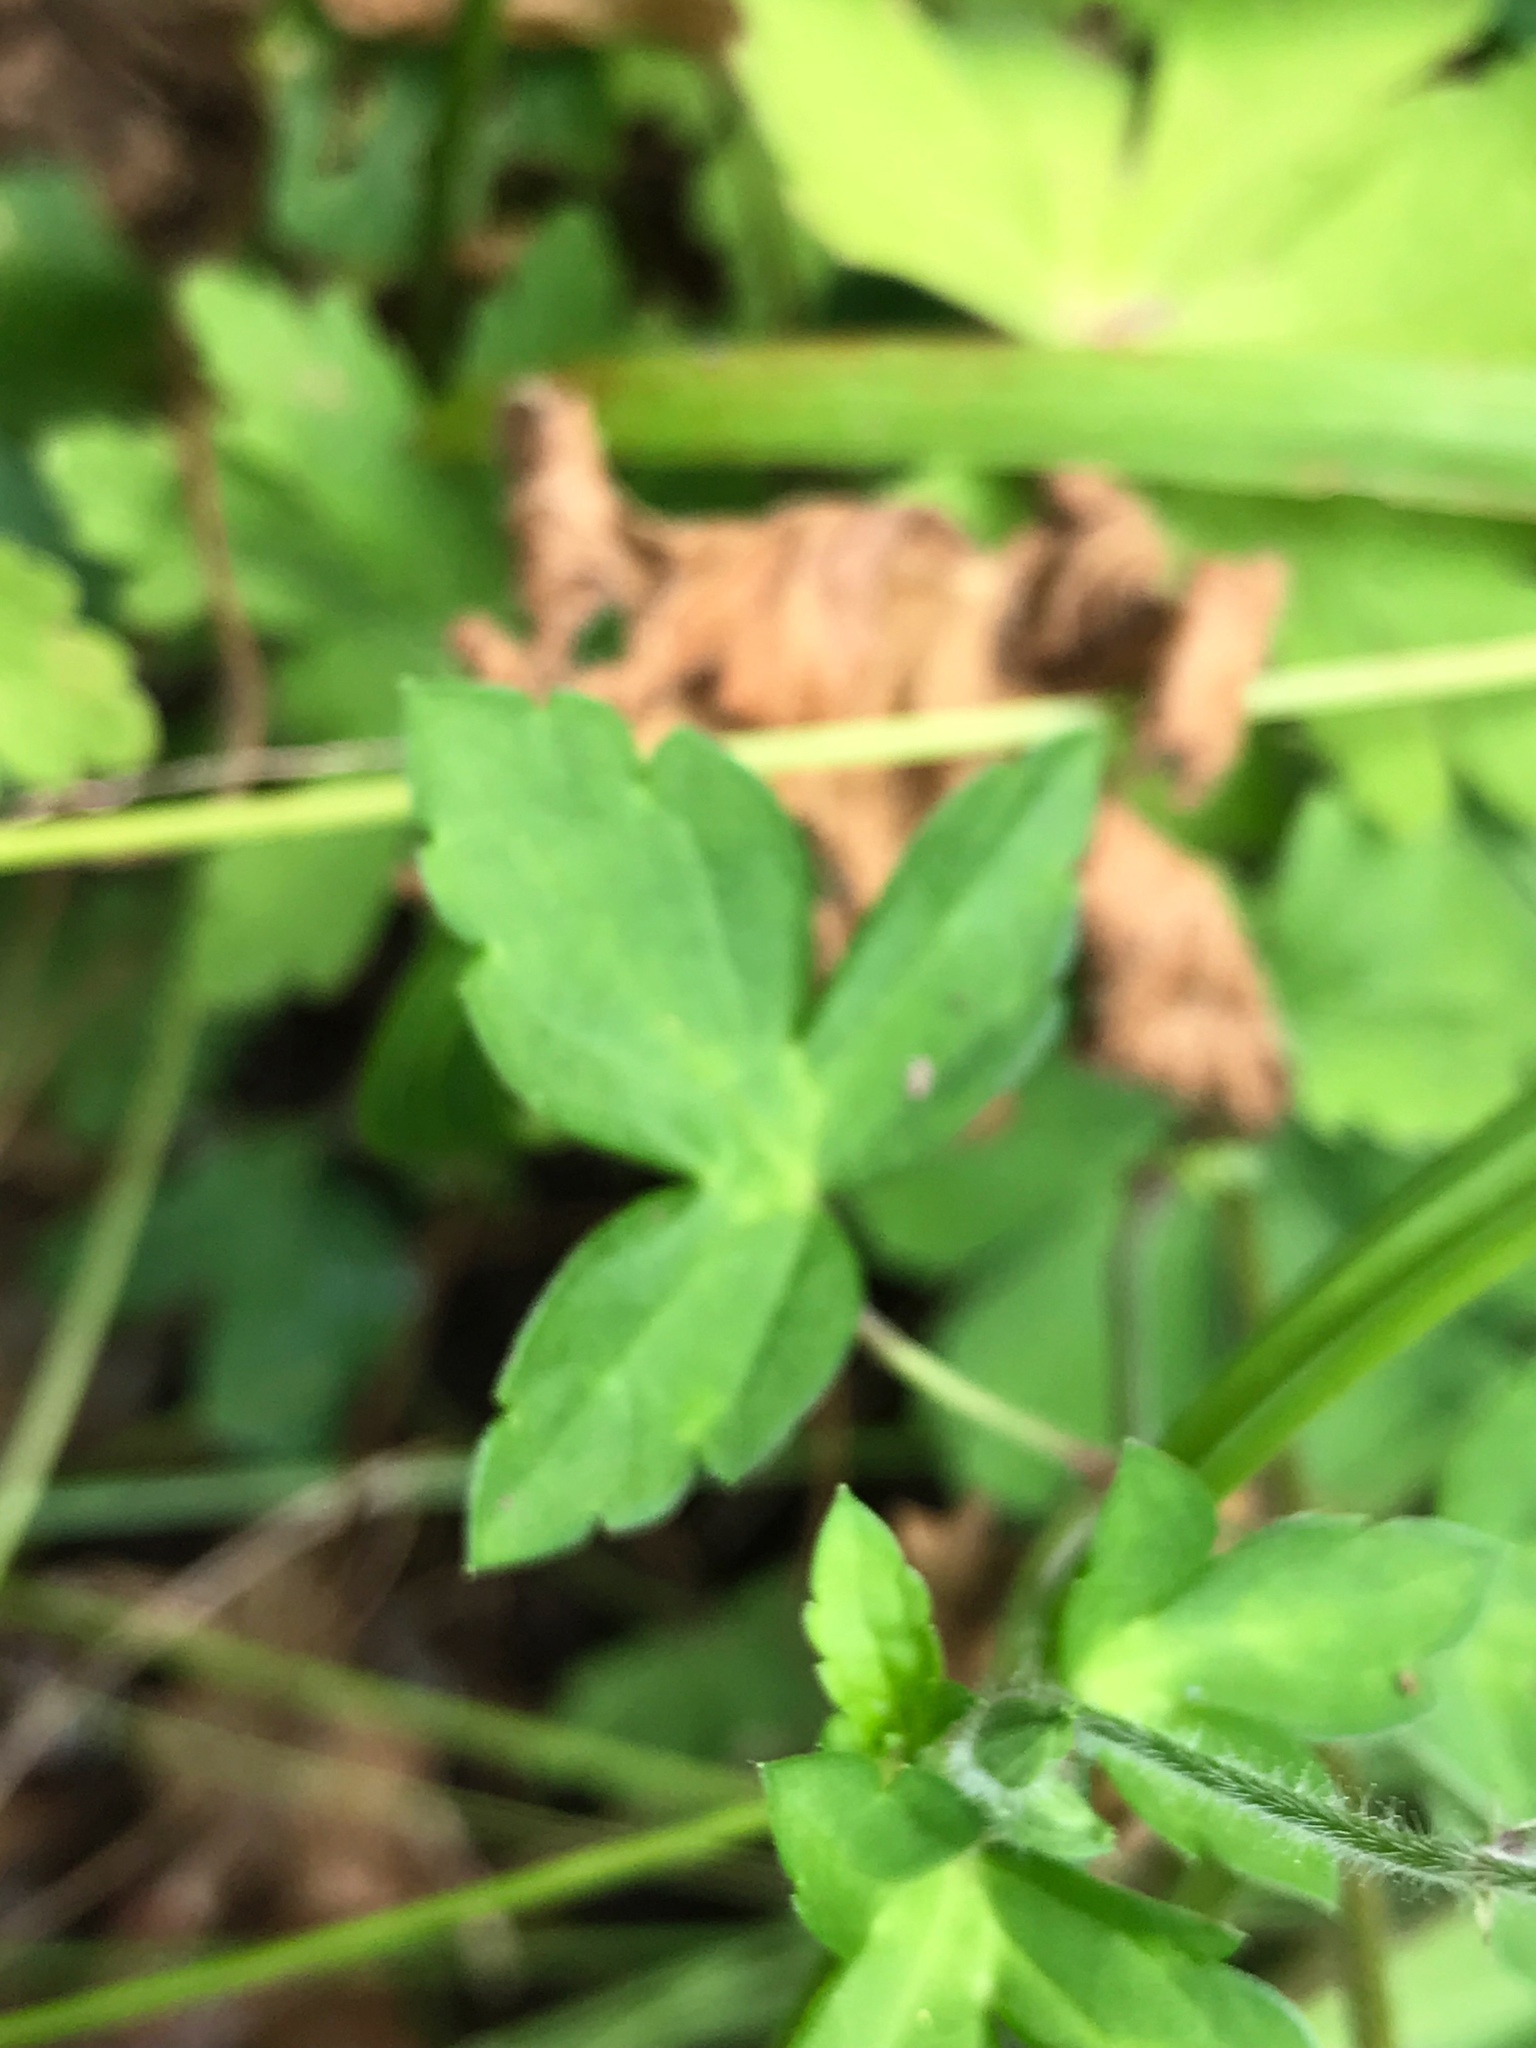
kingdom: Plantae
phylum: Tracheophyta
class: Magnoliopsida
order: Geraniales
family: Geraniaceae
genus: Geranium
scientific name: Geranium thunbergii
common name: Dewdrop crane's-bill
